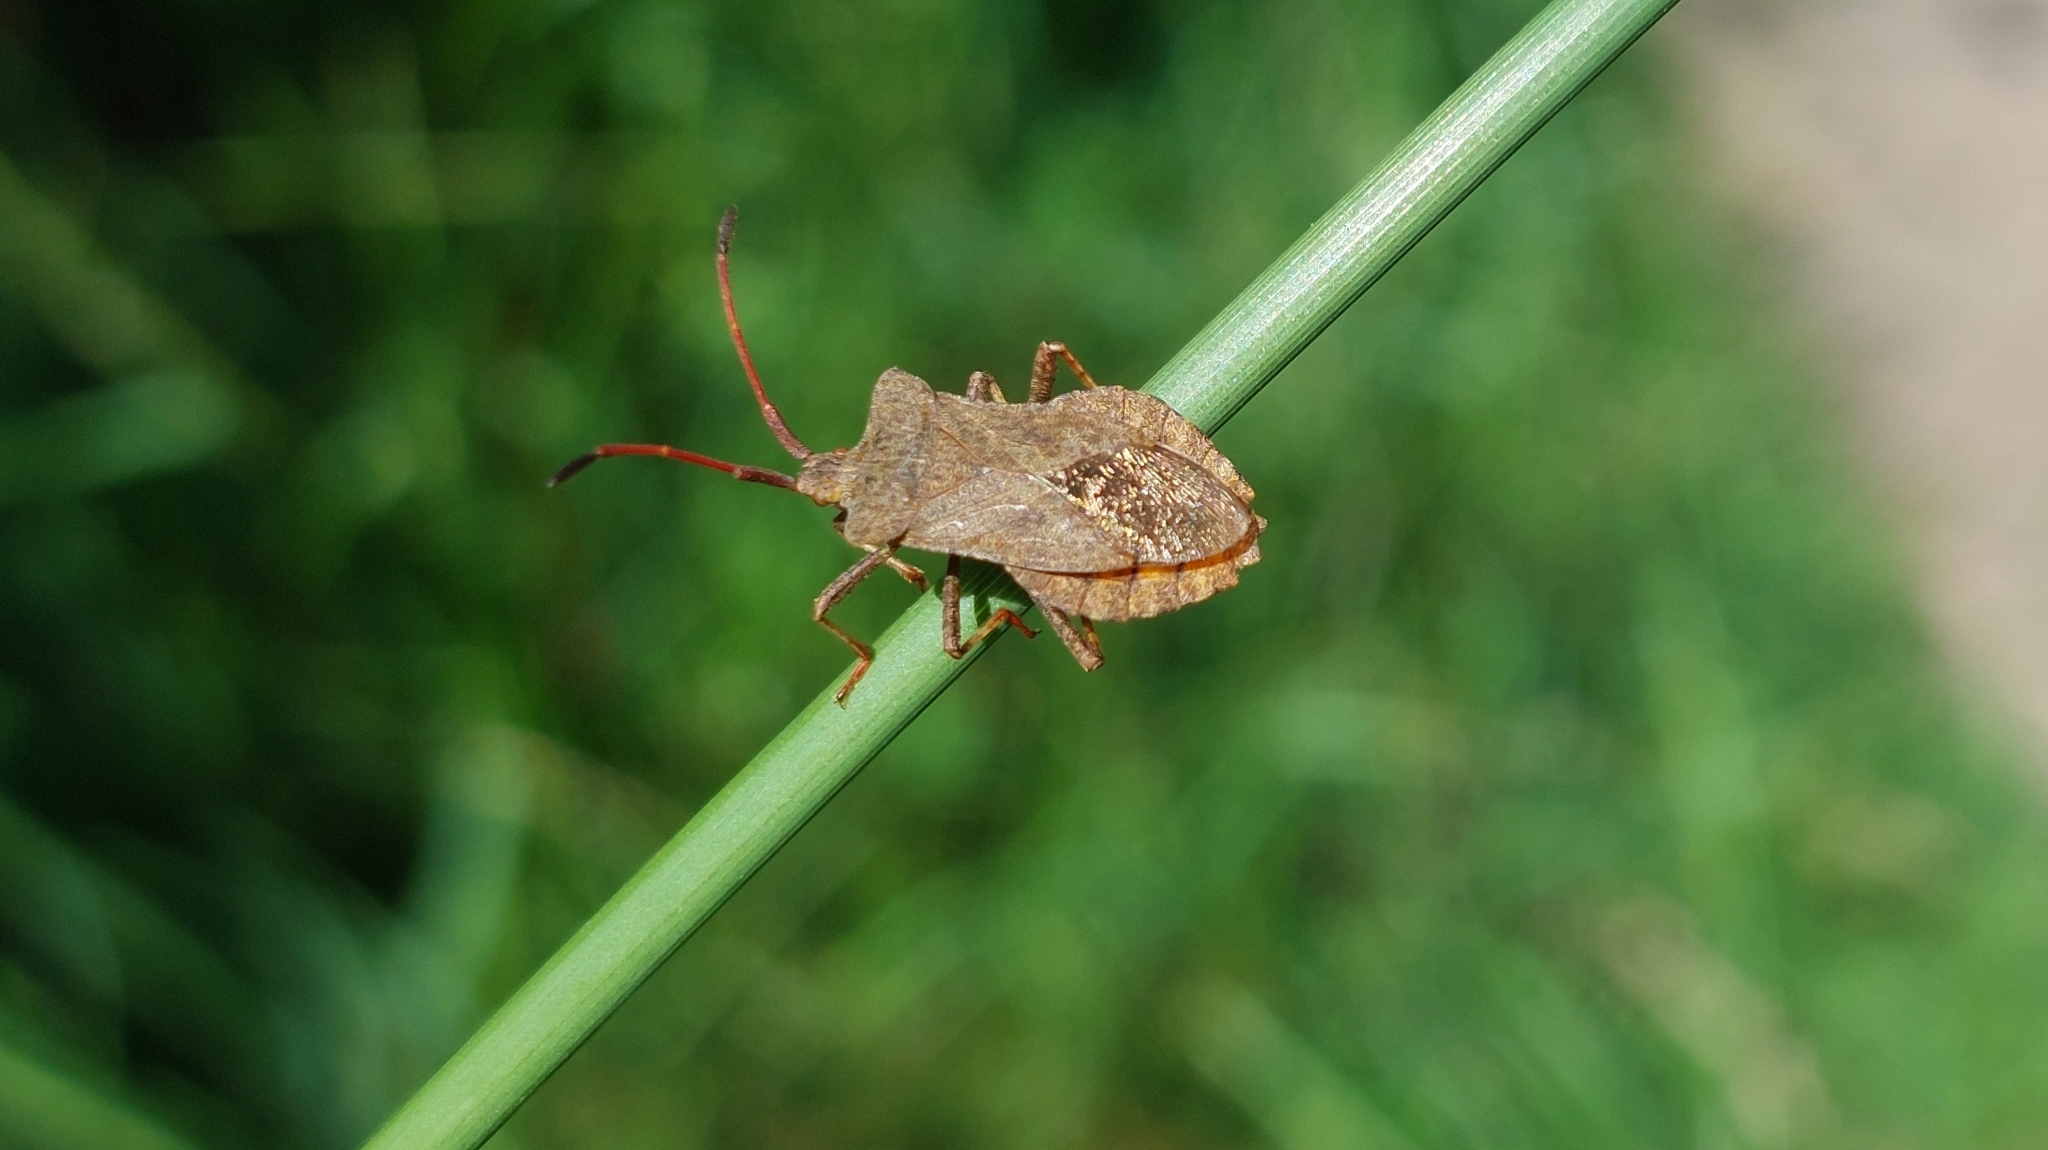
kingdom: Animalia
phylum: Arthropoda
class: Insecta
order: Hemiptera
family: Coreidae
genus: Coreus
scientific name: Coreus marginatus
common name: Dock bug
